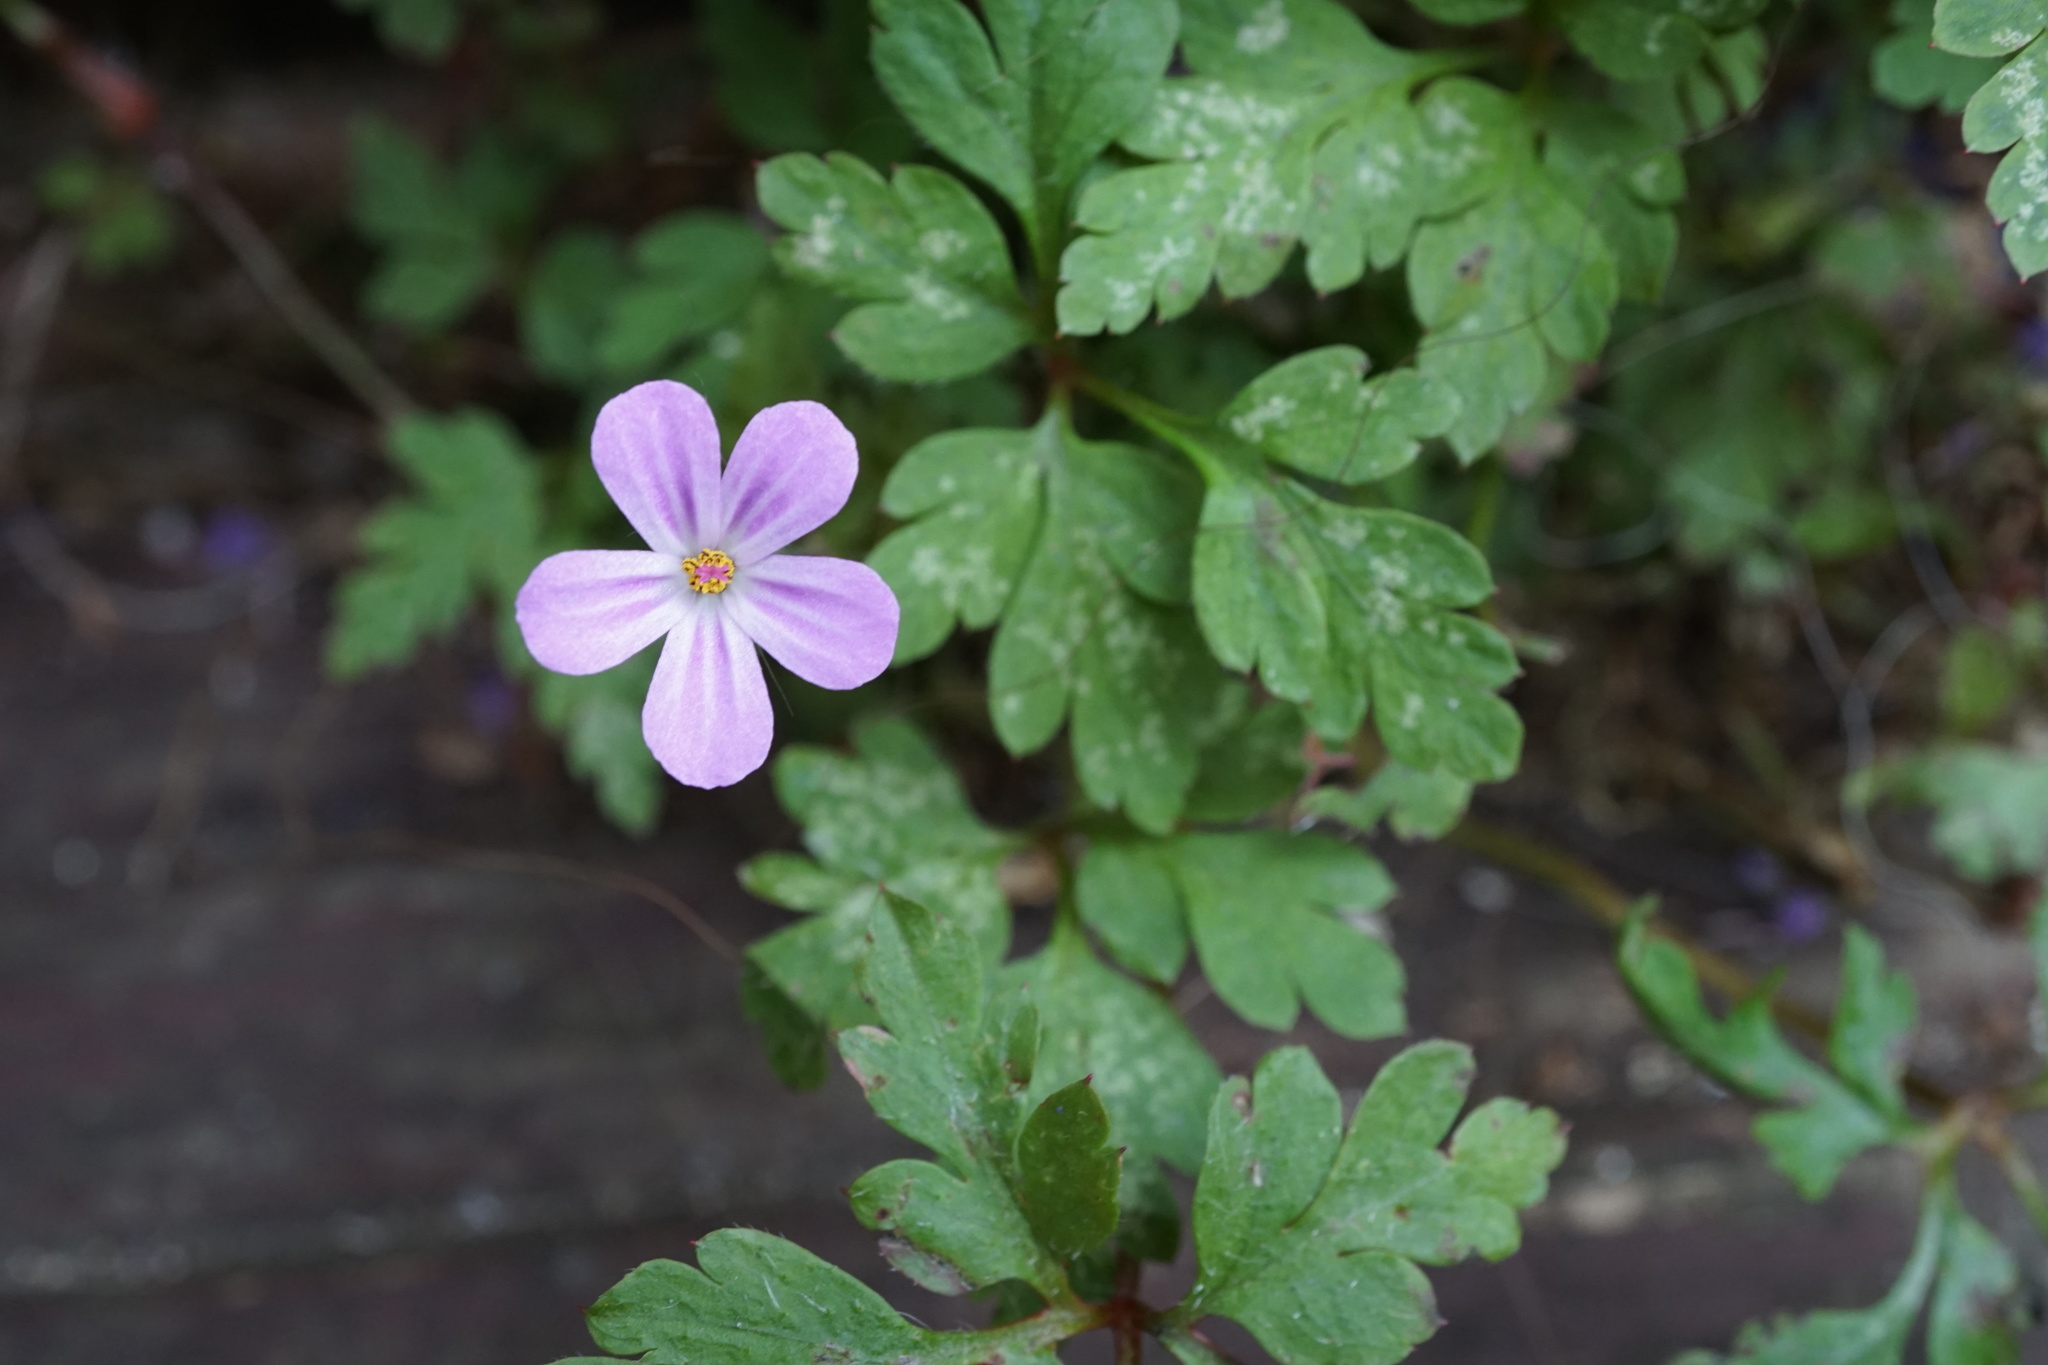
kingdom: Plantae
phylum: Tracheophyta
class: Magnoliopsida
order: Geraniales
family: Geraniaceae
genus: Geranium
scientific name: Geranium robertianum
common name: Herb-robert
